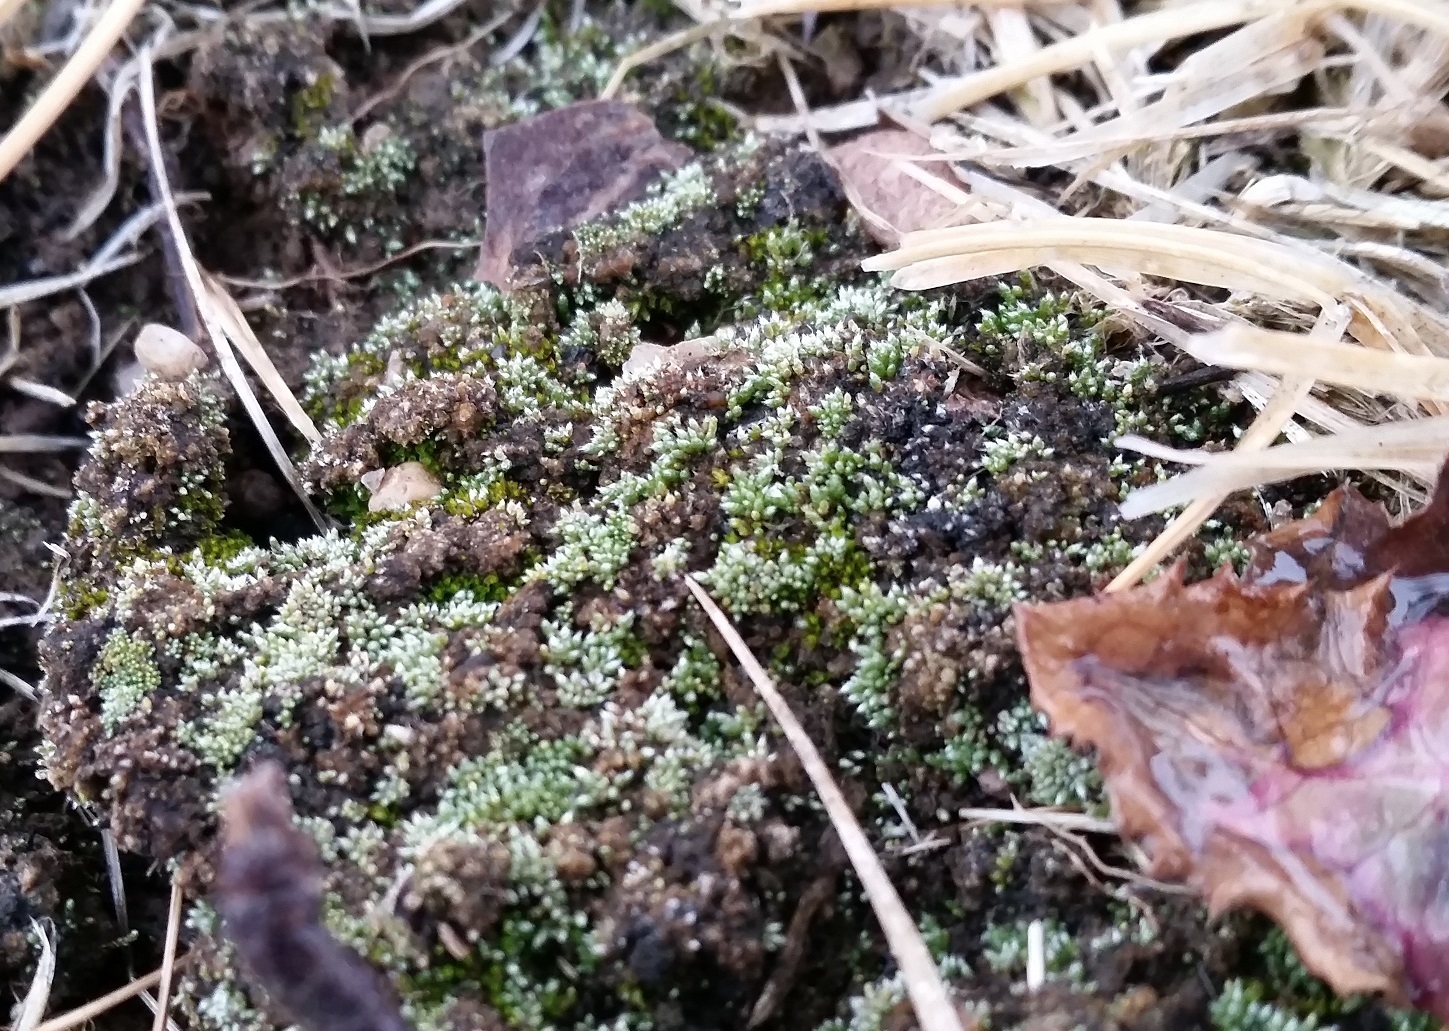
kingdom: Plantae
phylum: Bryophyta
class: Bryopsida
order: Bryales
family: Bryaceae
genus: Bryum
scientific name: Bryum argenteum
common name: Silver-moss
